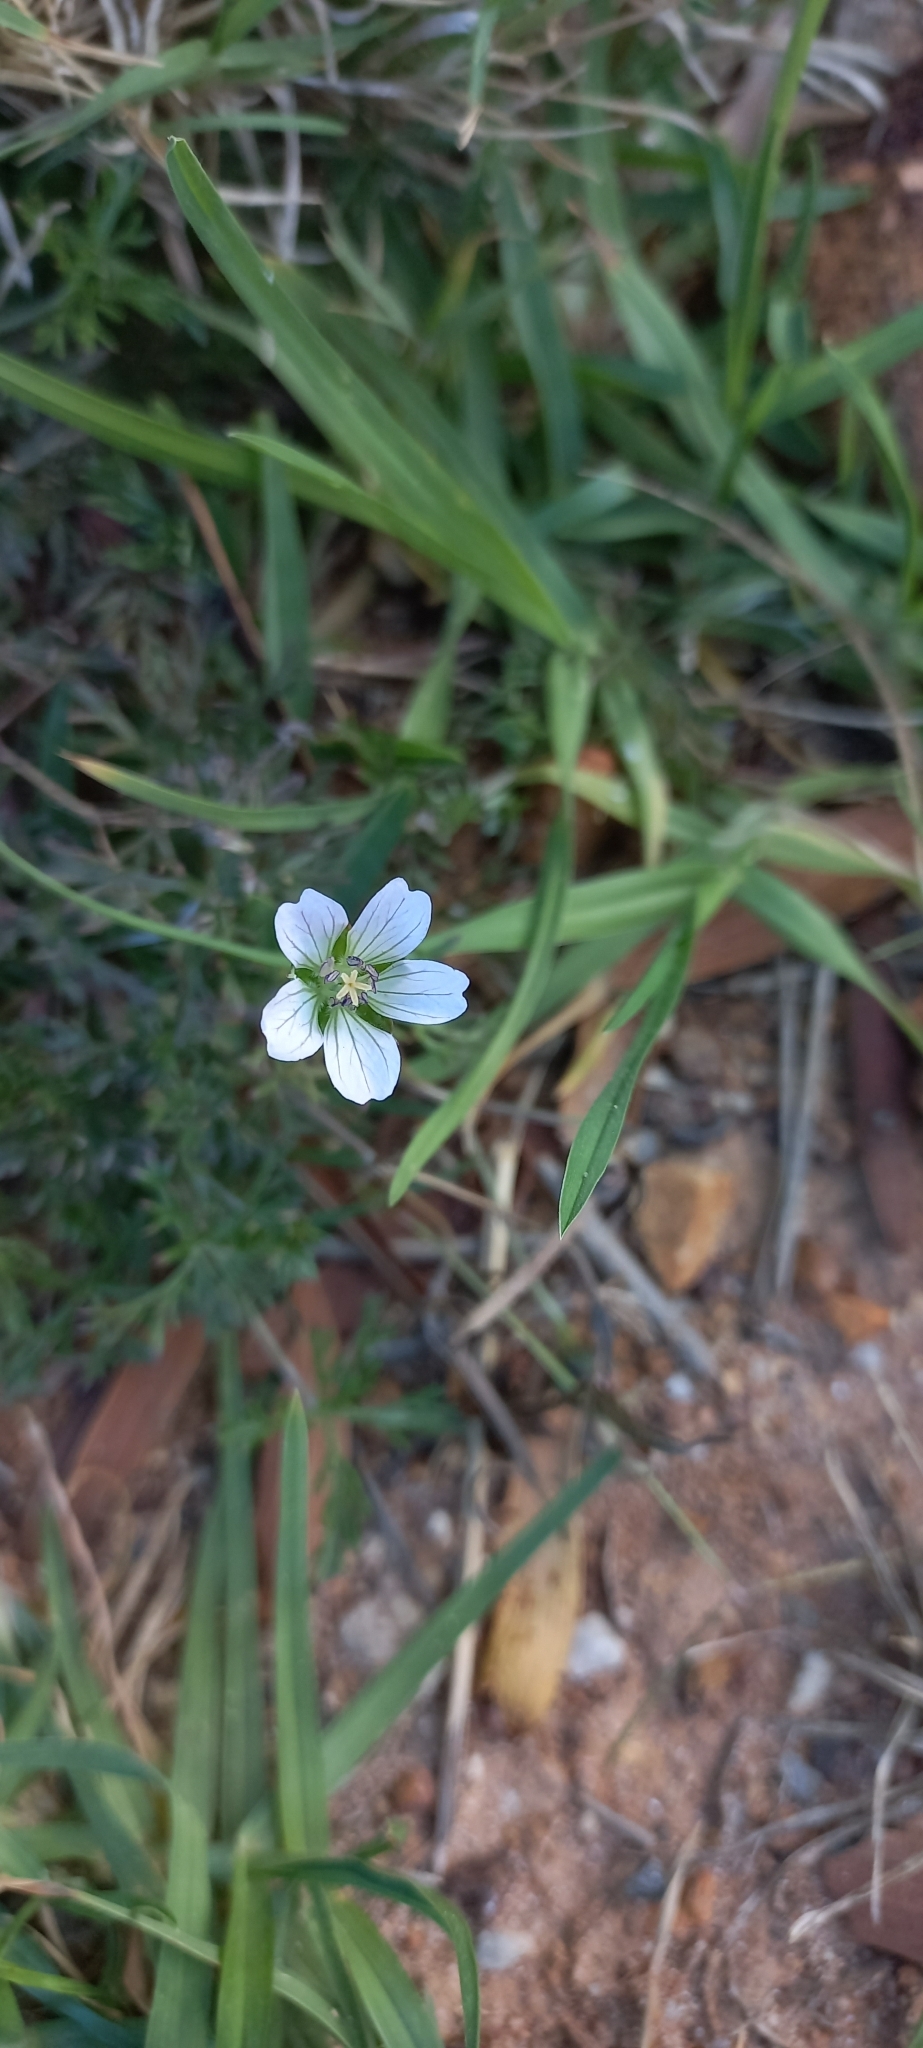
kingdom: Plantae
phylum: Tracheophyta
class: Magnoliopsida
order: Geraniales
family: Geraniaceae
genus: Geranium
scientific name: Geranium incanum
